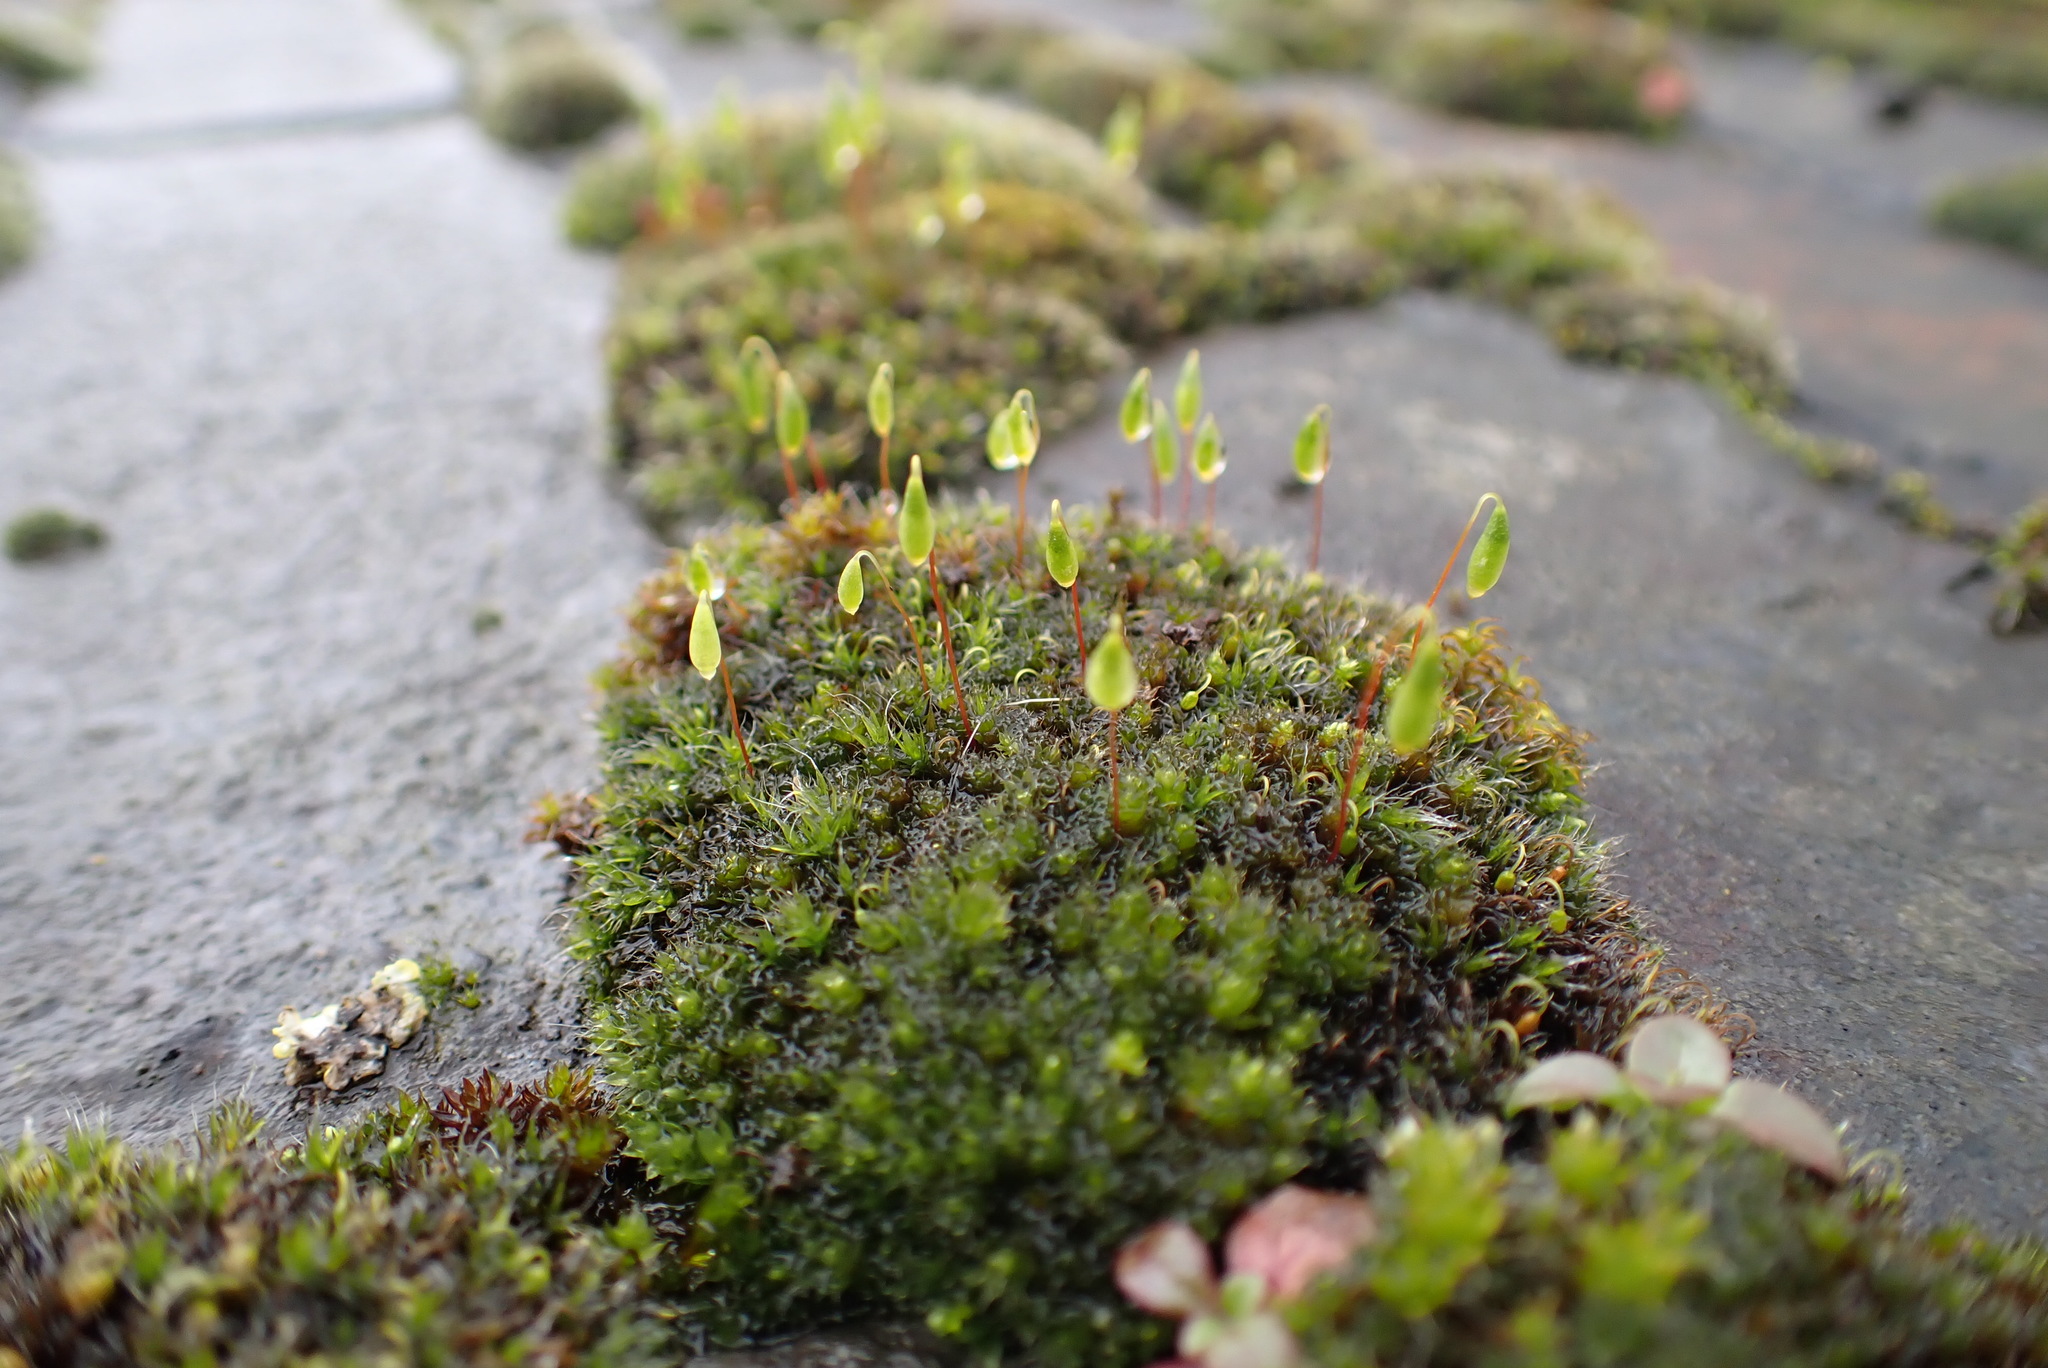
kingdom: Plantae
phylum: Bryophyta
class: Bryopsida
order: Bryales
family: Bryaceae
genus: Rosulabryum
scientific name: Rosulabryum capillare
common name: Capillary thread-moss
